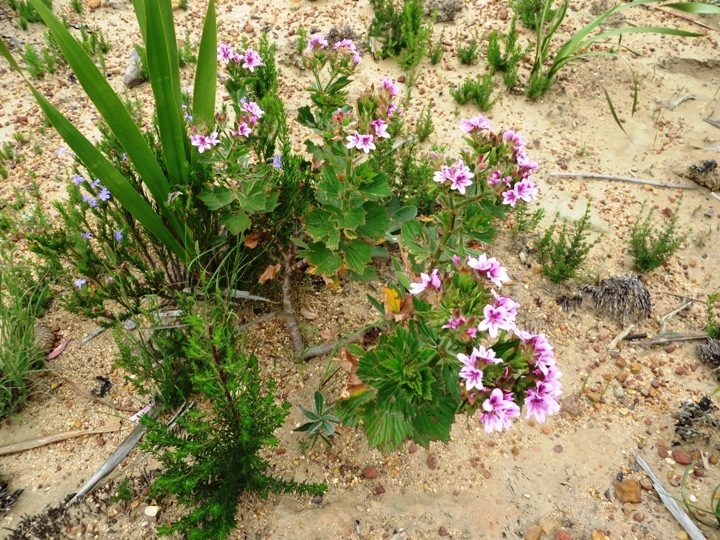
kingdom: Plantae
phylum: Tracheophyta
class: Magnoliopsida
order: Geraniales
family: Geraniaceae
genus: Pelargonium
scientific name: Pelargonium cucullatum
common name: Tree pelargonium
